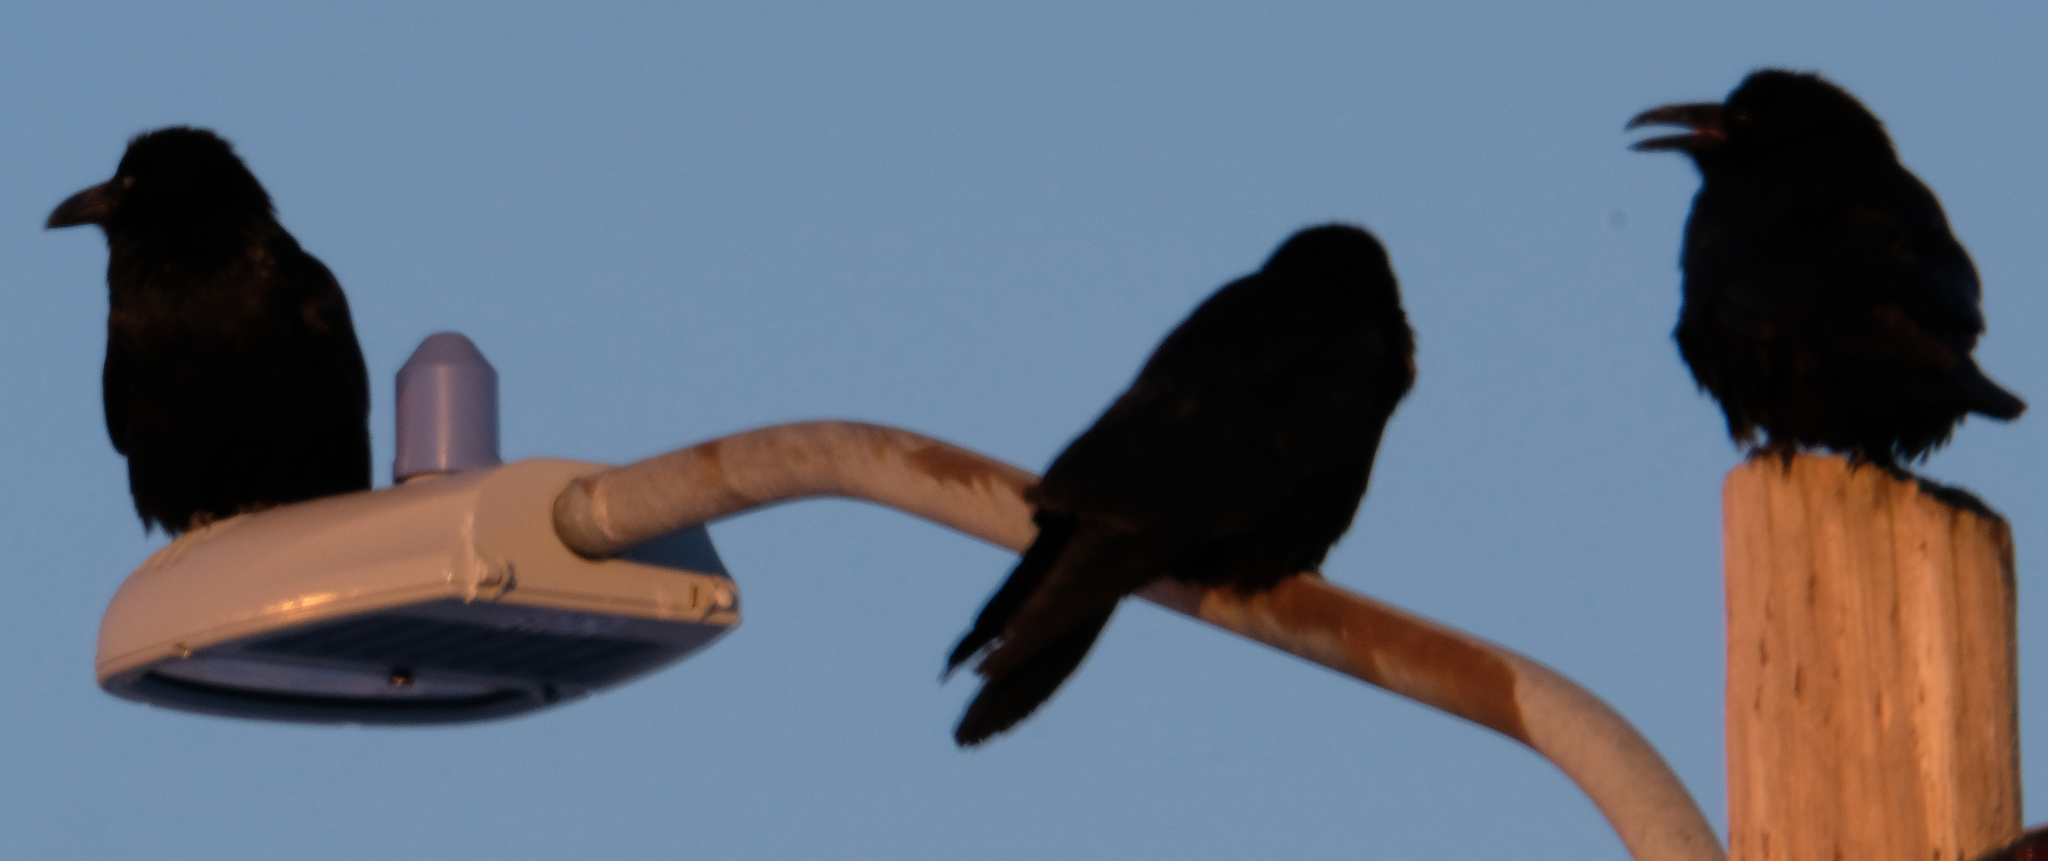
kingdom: Animalia
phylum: Chordata
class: Aves
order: Passeriformes
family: Corvidae
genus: Corvus
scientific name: Corvus corax
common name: Common raven
